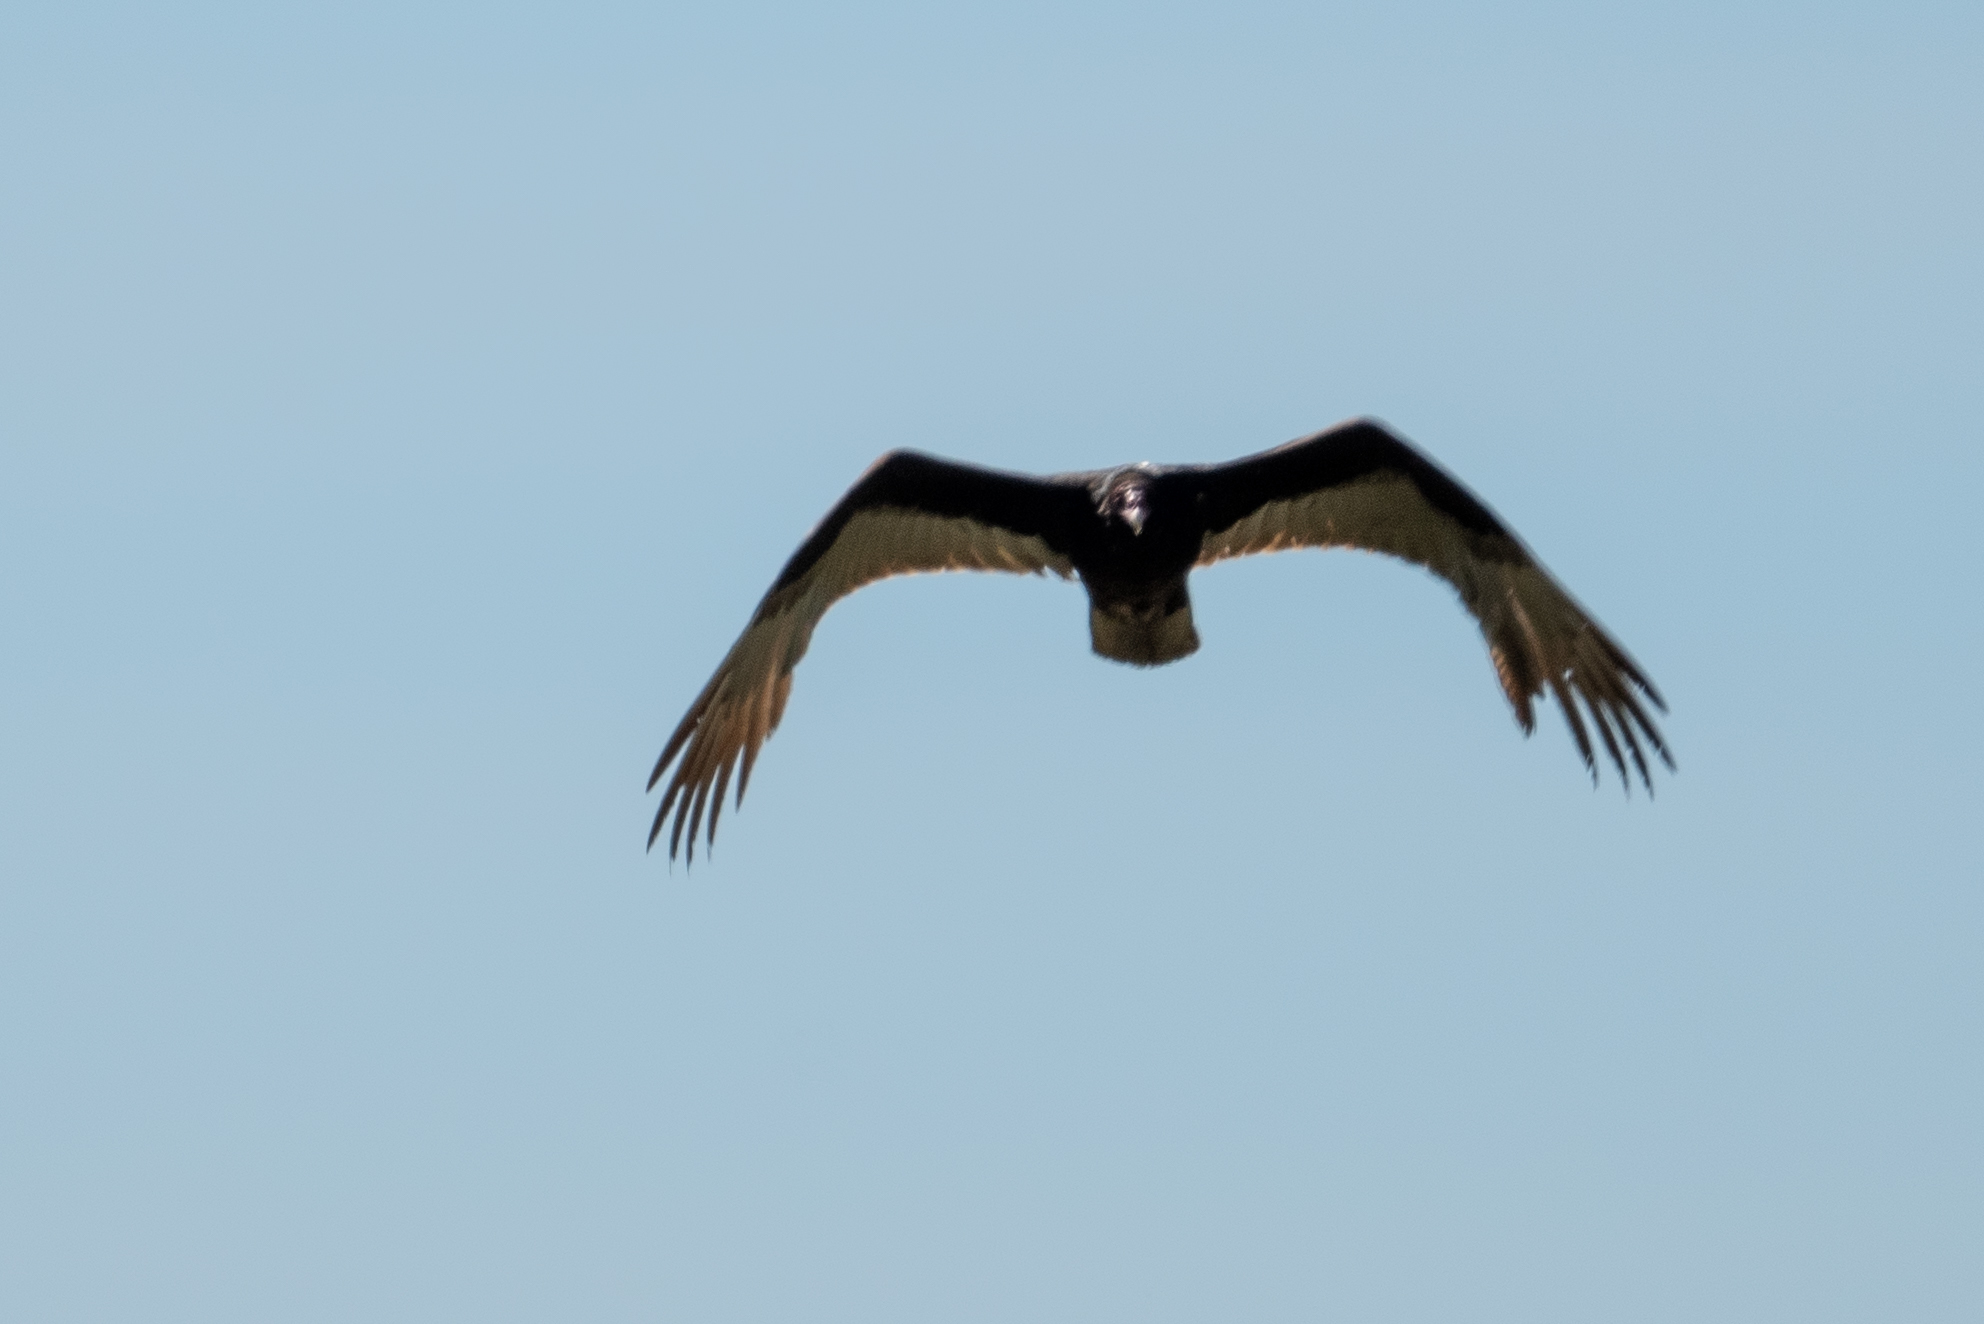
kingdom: Animalia
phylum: Chordata
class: Aves
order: Accipitriformes
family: Cathartidae
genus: Cathartes
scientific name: Cathartes aura
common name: Turkey vulture
